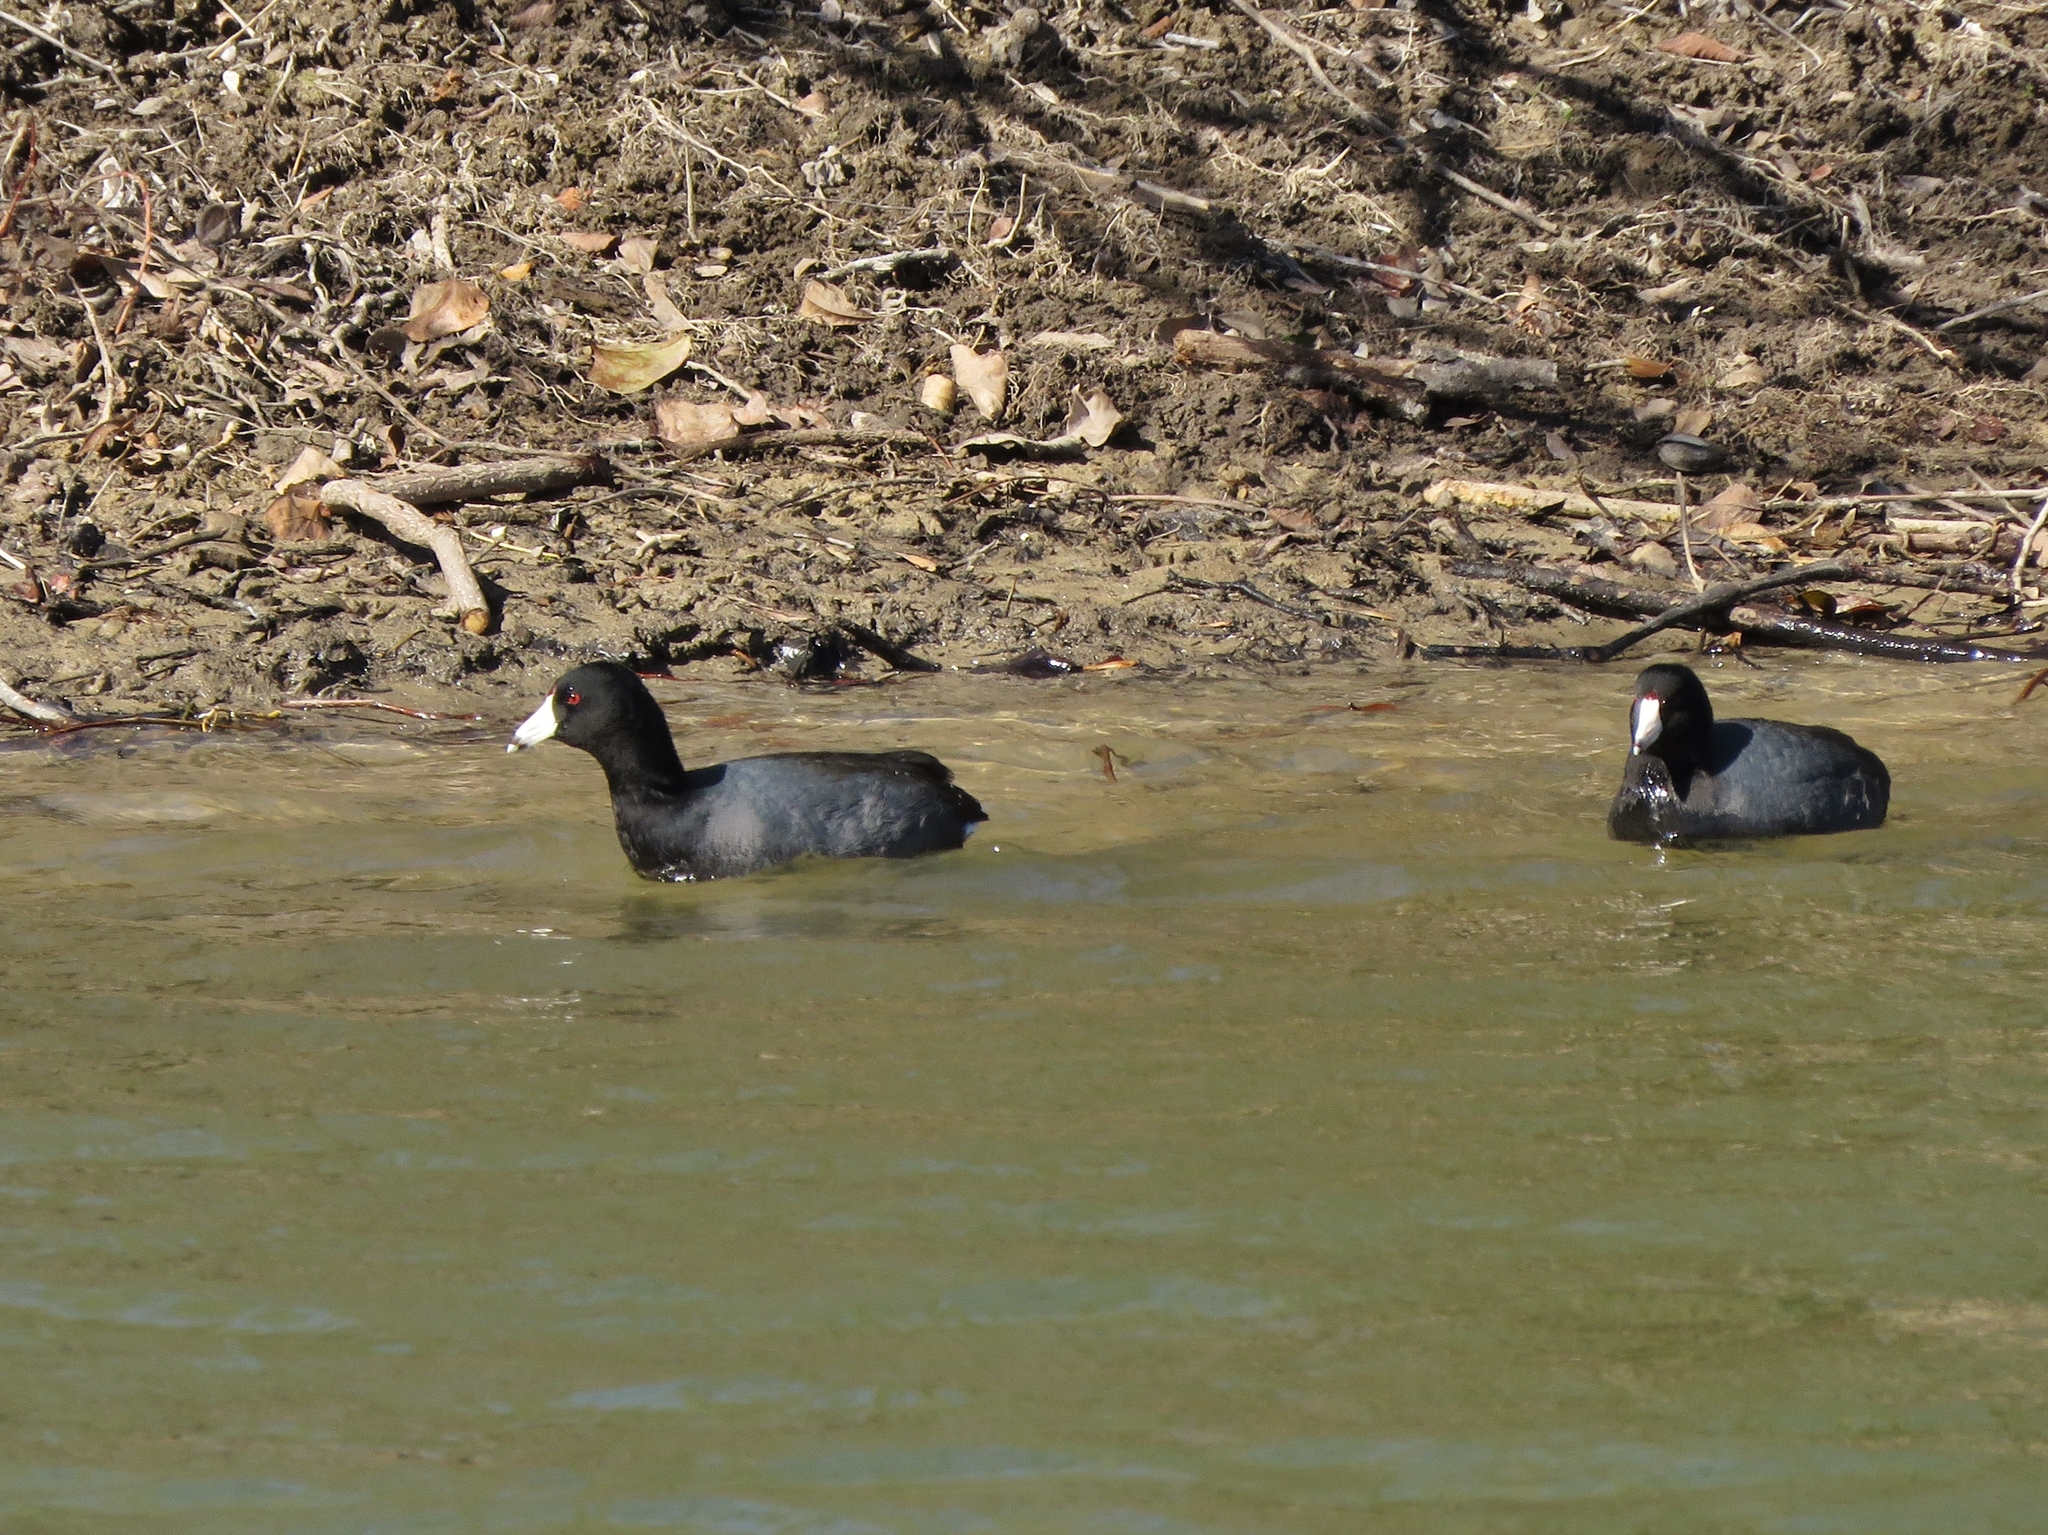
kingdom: Animalia
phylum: Chordata
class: Aves
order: Gruiformes
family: Rallidae
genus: Fulica
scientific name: Fulica americana
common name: American coot
